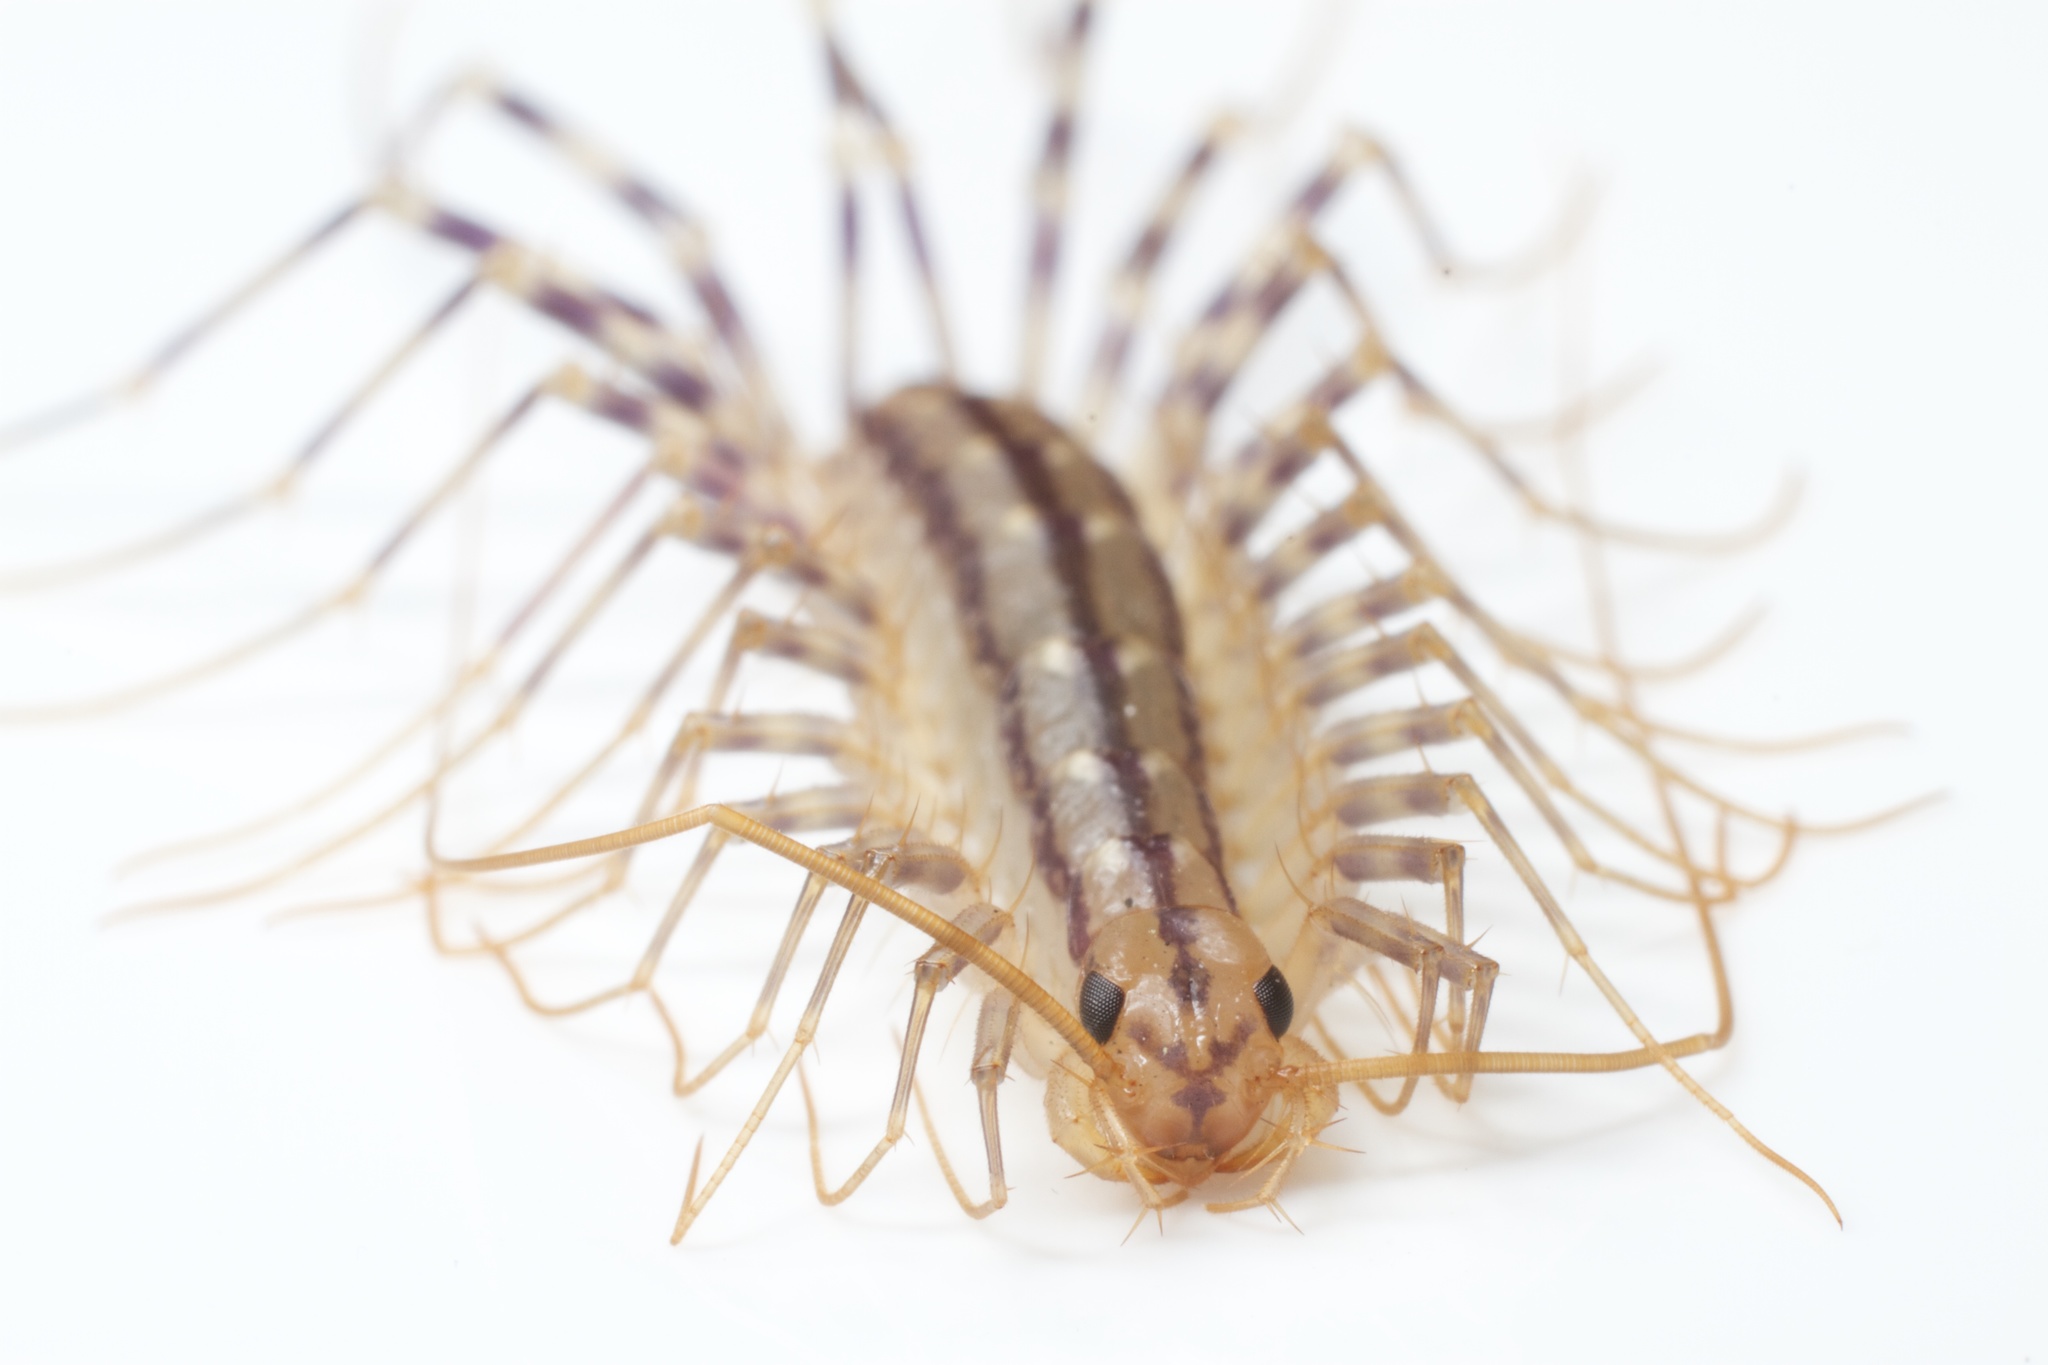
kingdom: Animalia
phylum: Arthropoda
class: Chilopoda
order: Scutigeromorpha
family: Scutigeridae
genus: Scutigera
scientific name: Scutigera coleoptrata
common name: House centipede
